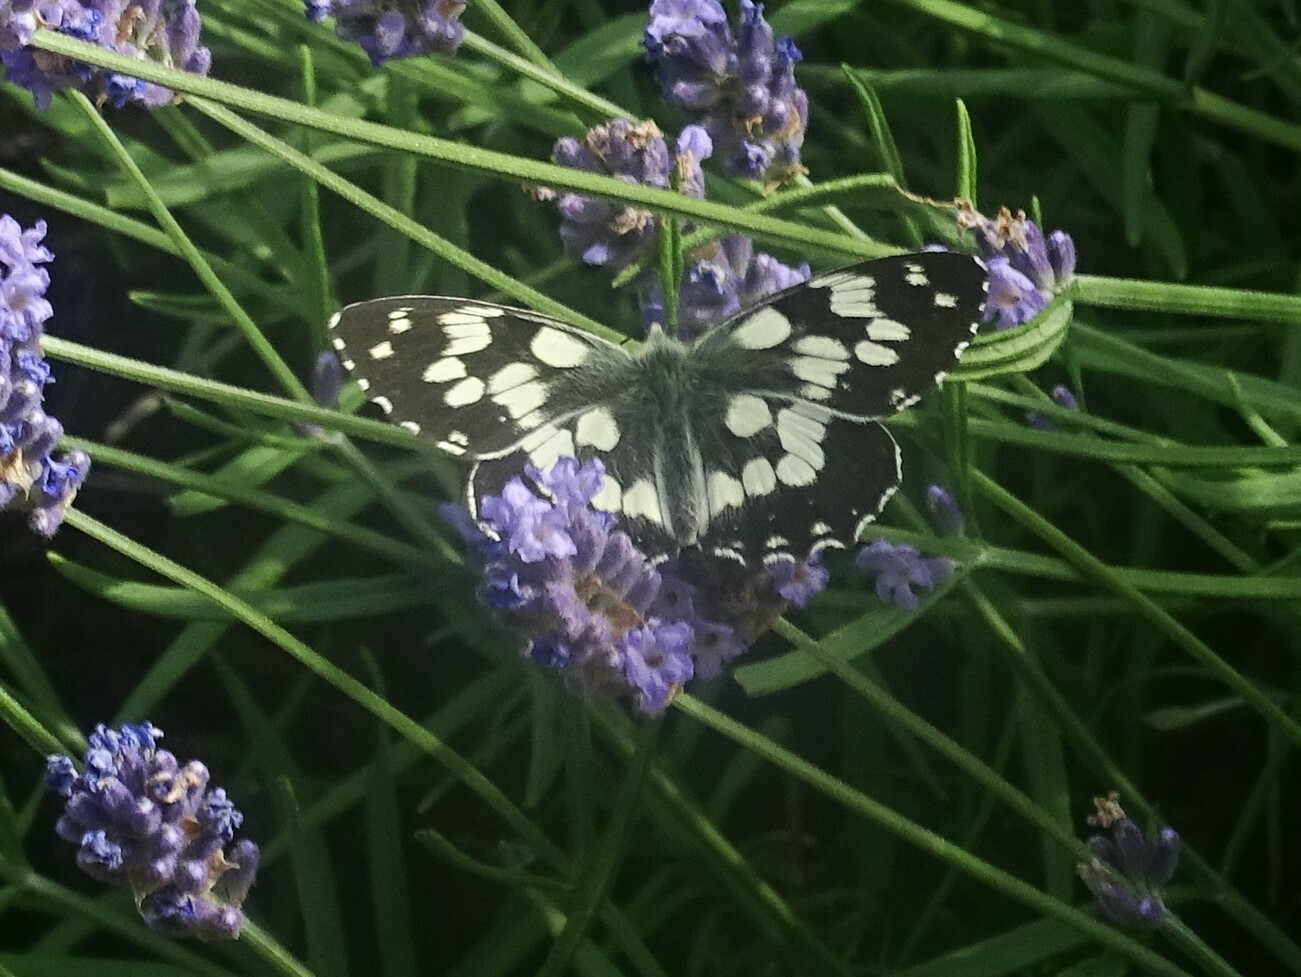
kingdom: Animalia
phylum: Arthropoda
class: Insecta
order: Lepidoptera
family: Nymphalidae
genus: Melanargia
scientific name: Melanargia galathea
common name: Marbled white
